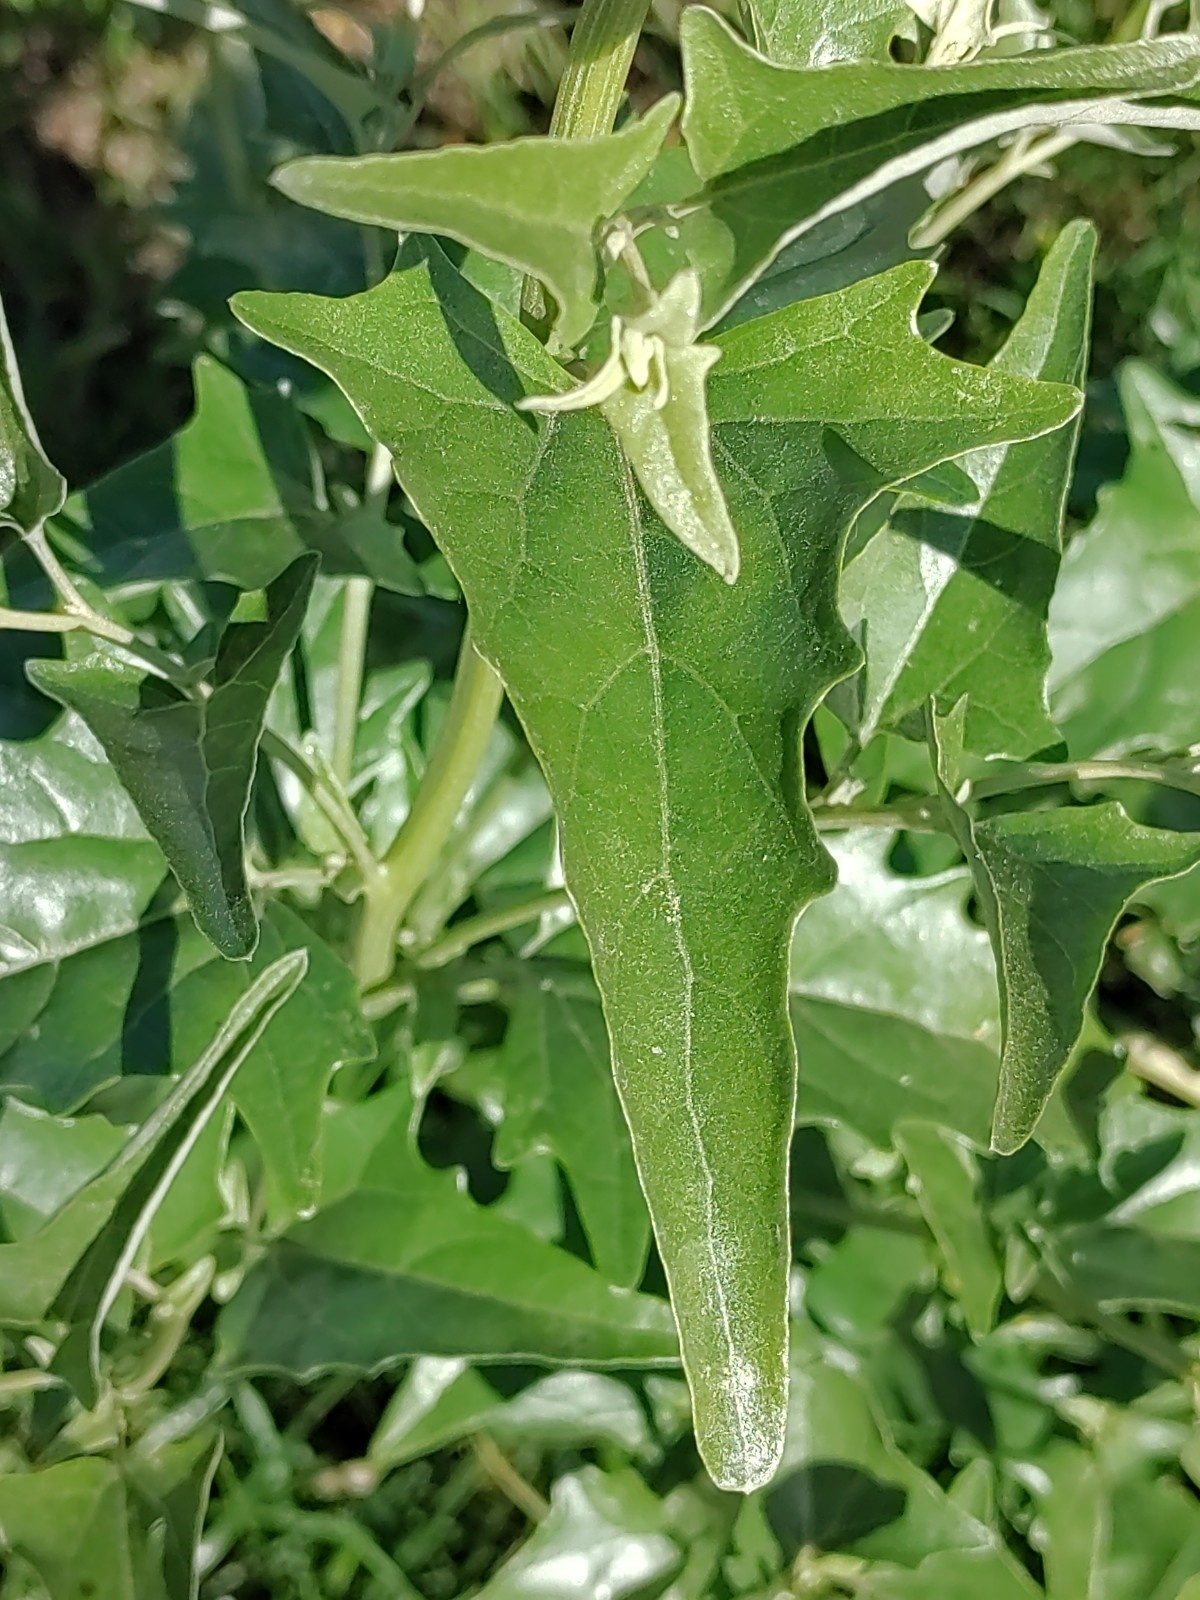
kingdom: Plantae
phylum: Tracheophyta
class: Magnoliopsida
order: Caryophyllales
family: Amaranthaceae
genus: Atriplex
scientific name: Atriplex sagittata
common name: Purple orache
